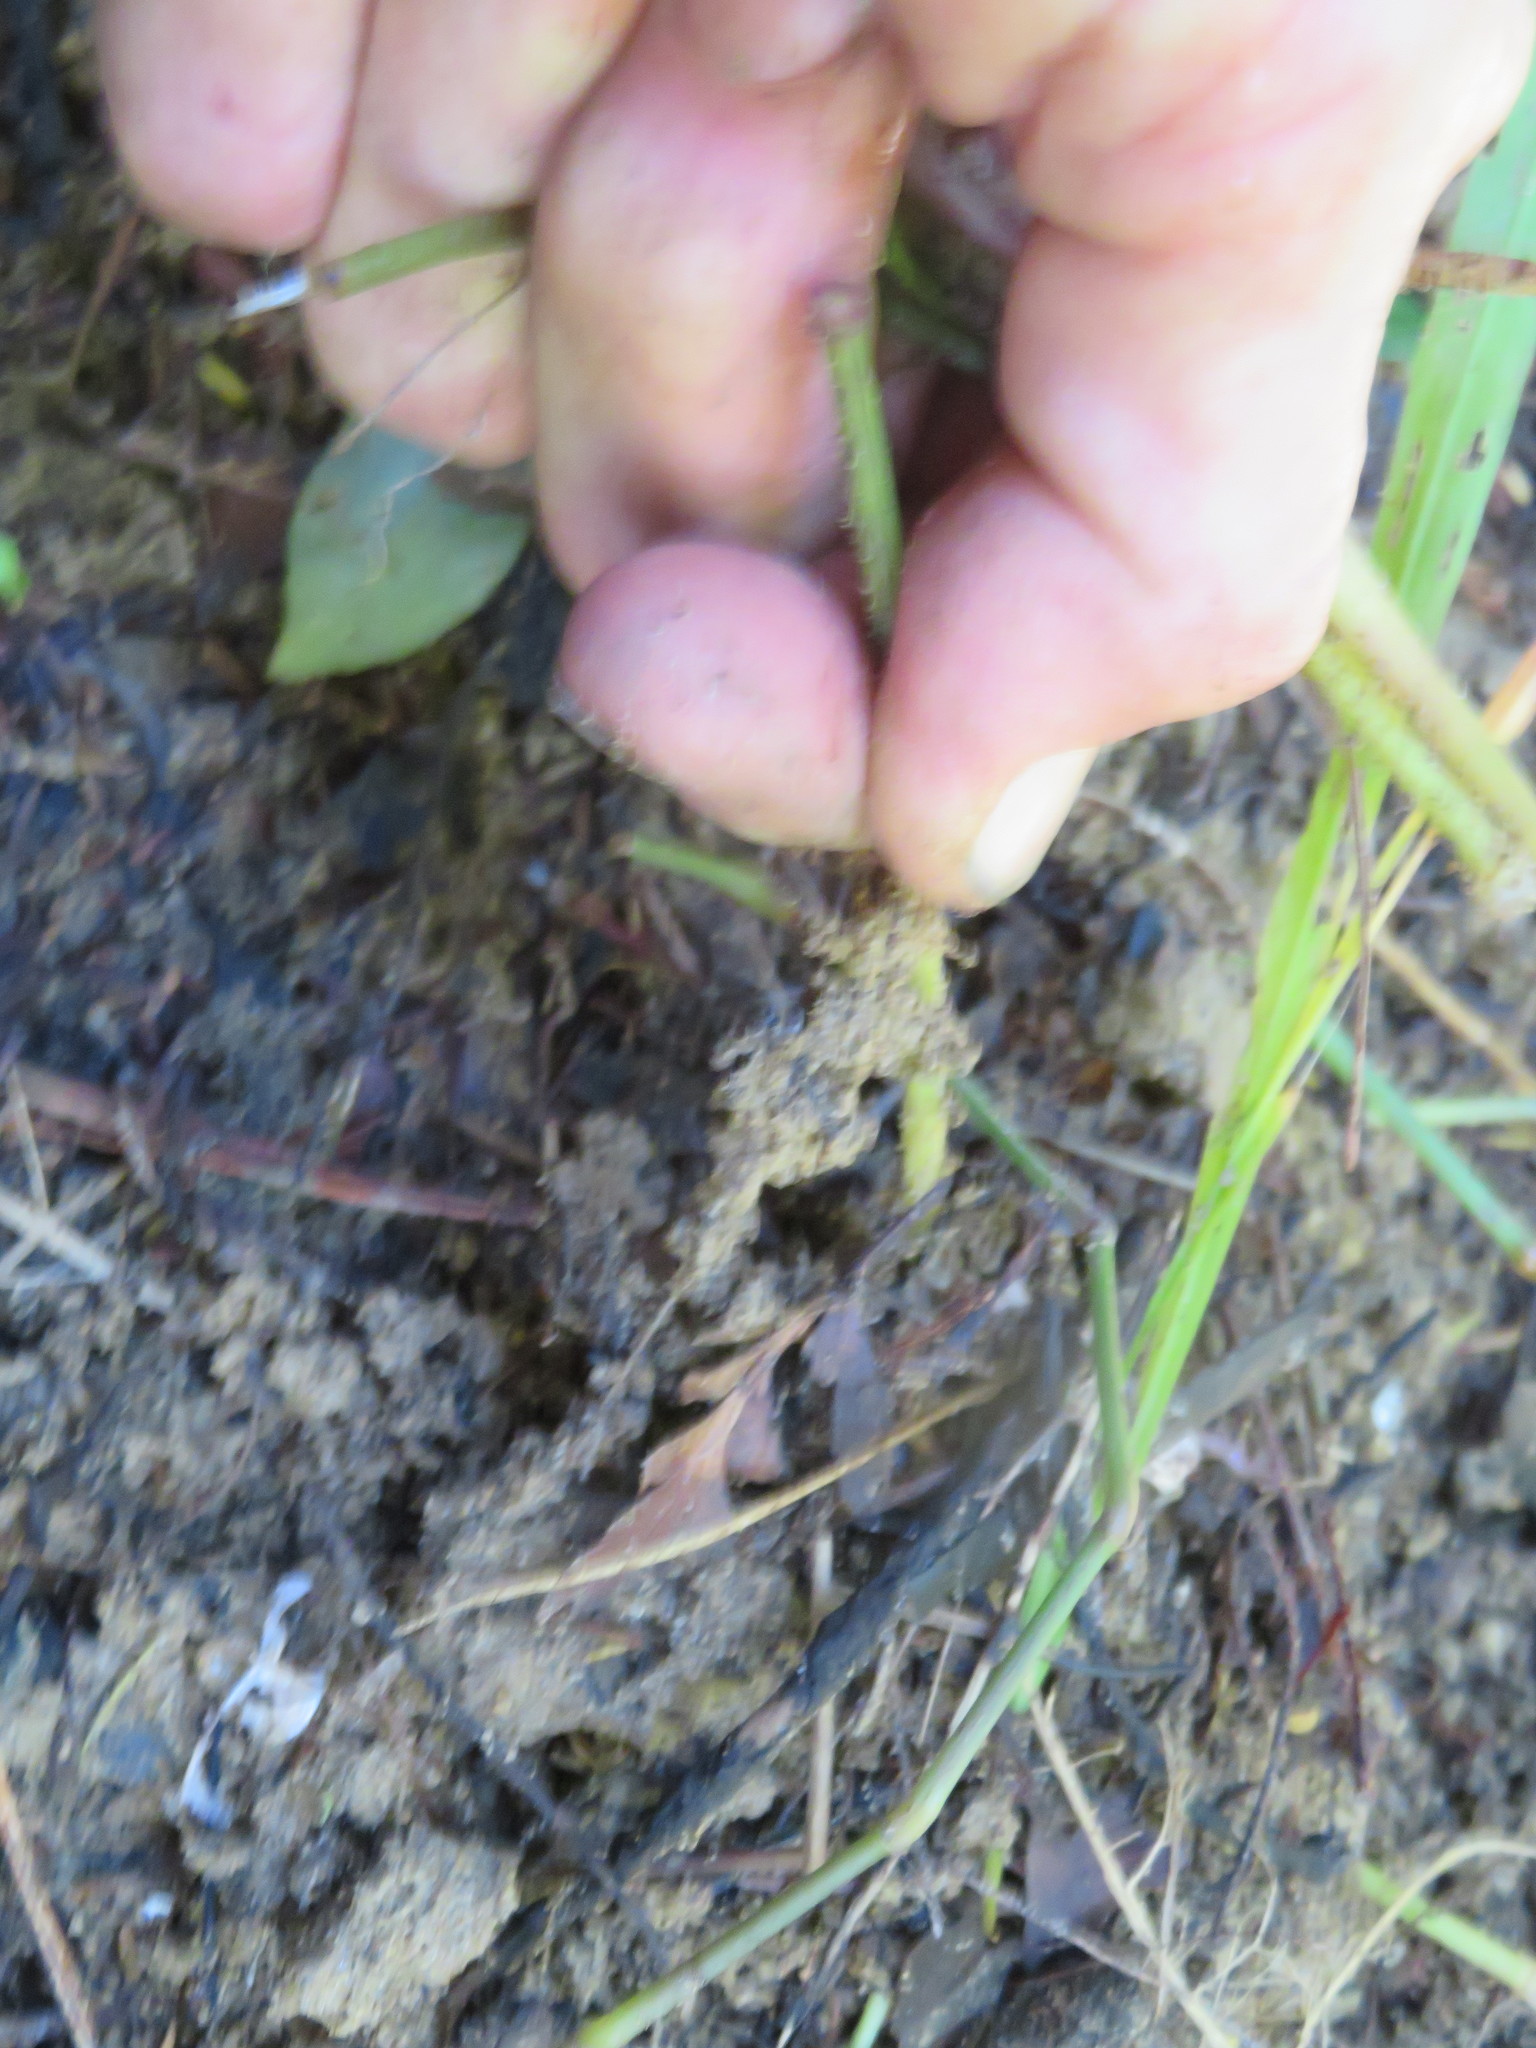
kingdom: Plantae
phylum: Tracheophyta
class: Liliopsida
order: Commelinales
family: Commelinaceae
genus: Tradescantia
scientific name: Tradescantia fluminensis
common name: Wandering-jew
